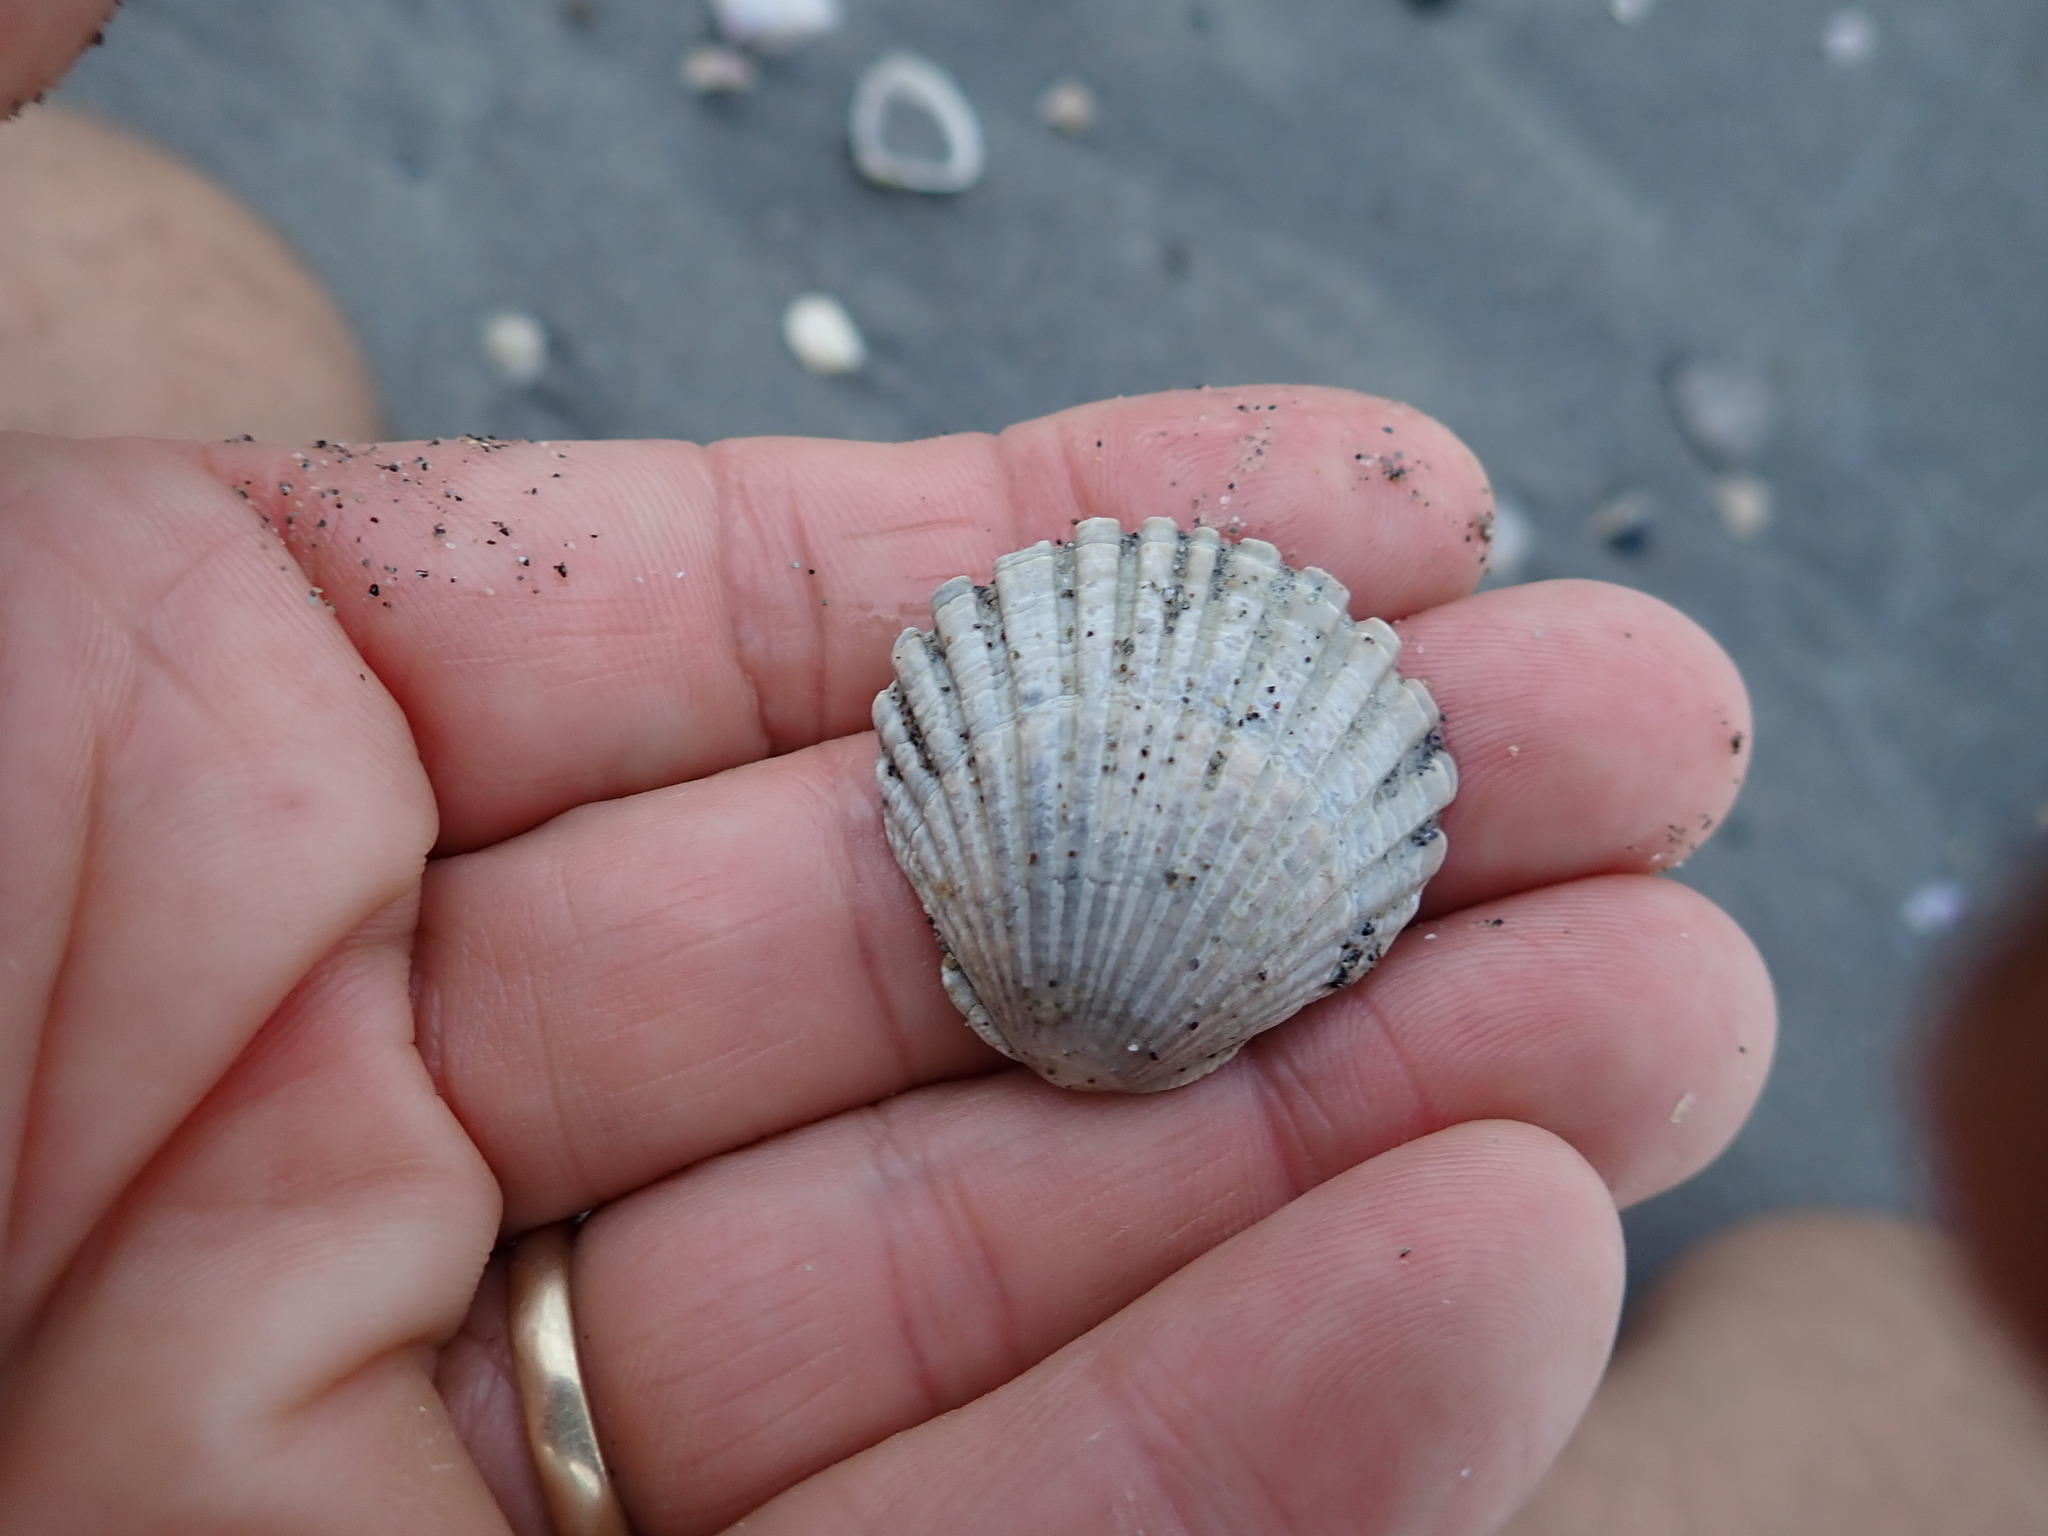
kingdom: Animalia
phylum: Mollusca
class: Bivalvia
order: Pectinida
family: Pectinidae
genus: Pecten
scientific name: Pecten novaezelandiae
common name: New zealand scallop
